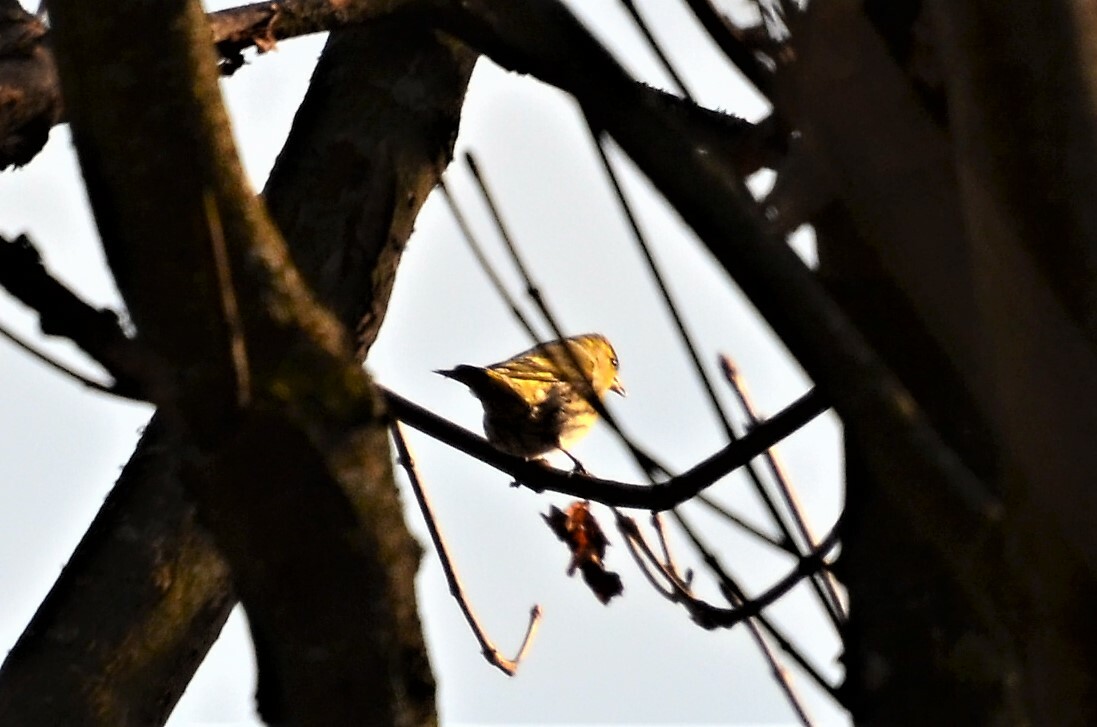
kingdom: Animalia
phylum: Chordata
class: Aves
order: Passeriformes
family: Fringillidae
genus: Spinus
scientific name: Spinus spinus
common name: Eurasian siskin
